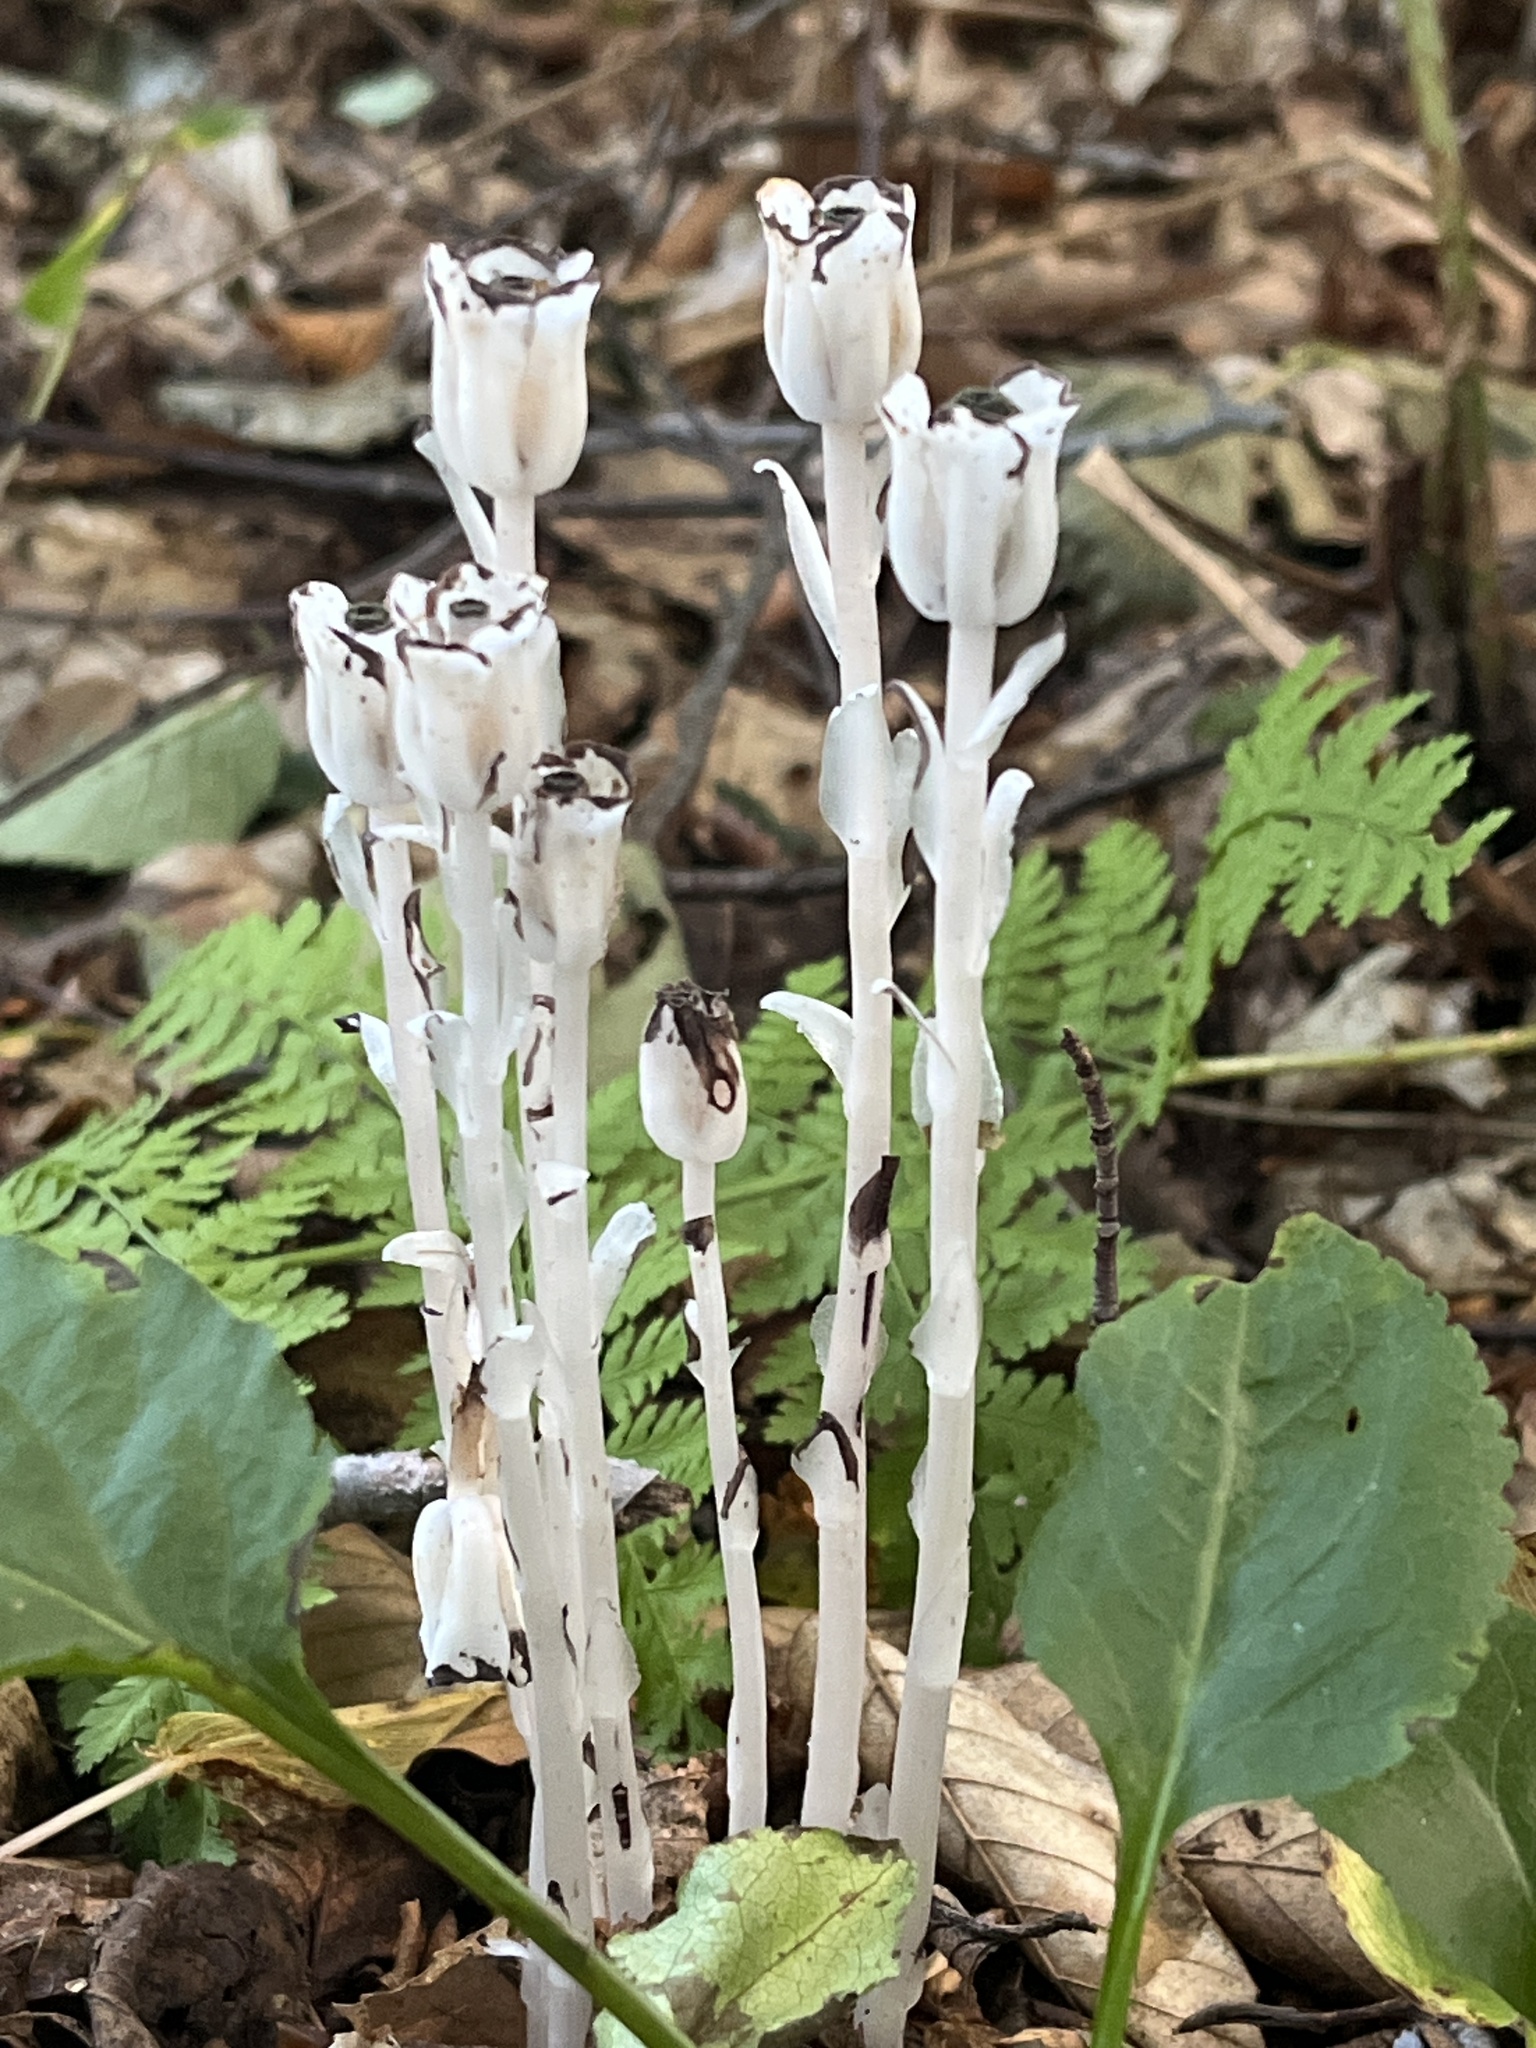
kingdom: Plantae
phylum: Tracheophyta
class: Magnoliopsida
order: Ericales
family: Ericaceae
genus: Monotropa
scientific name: Monotropa uniflora
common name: Convulsion root
